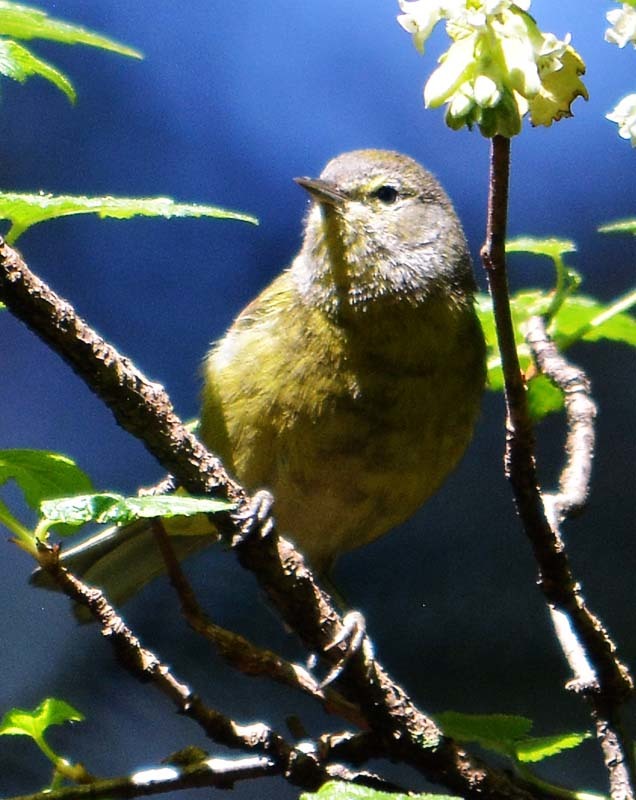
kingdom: Animalia
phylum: Chordata
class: Aves
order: Passeriformes
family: Parulidae
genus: Leiothlypis
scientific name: Leiothlypis celata
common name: Orange-crowned warbler
